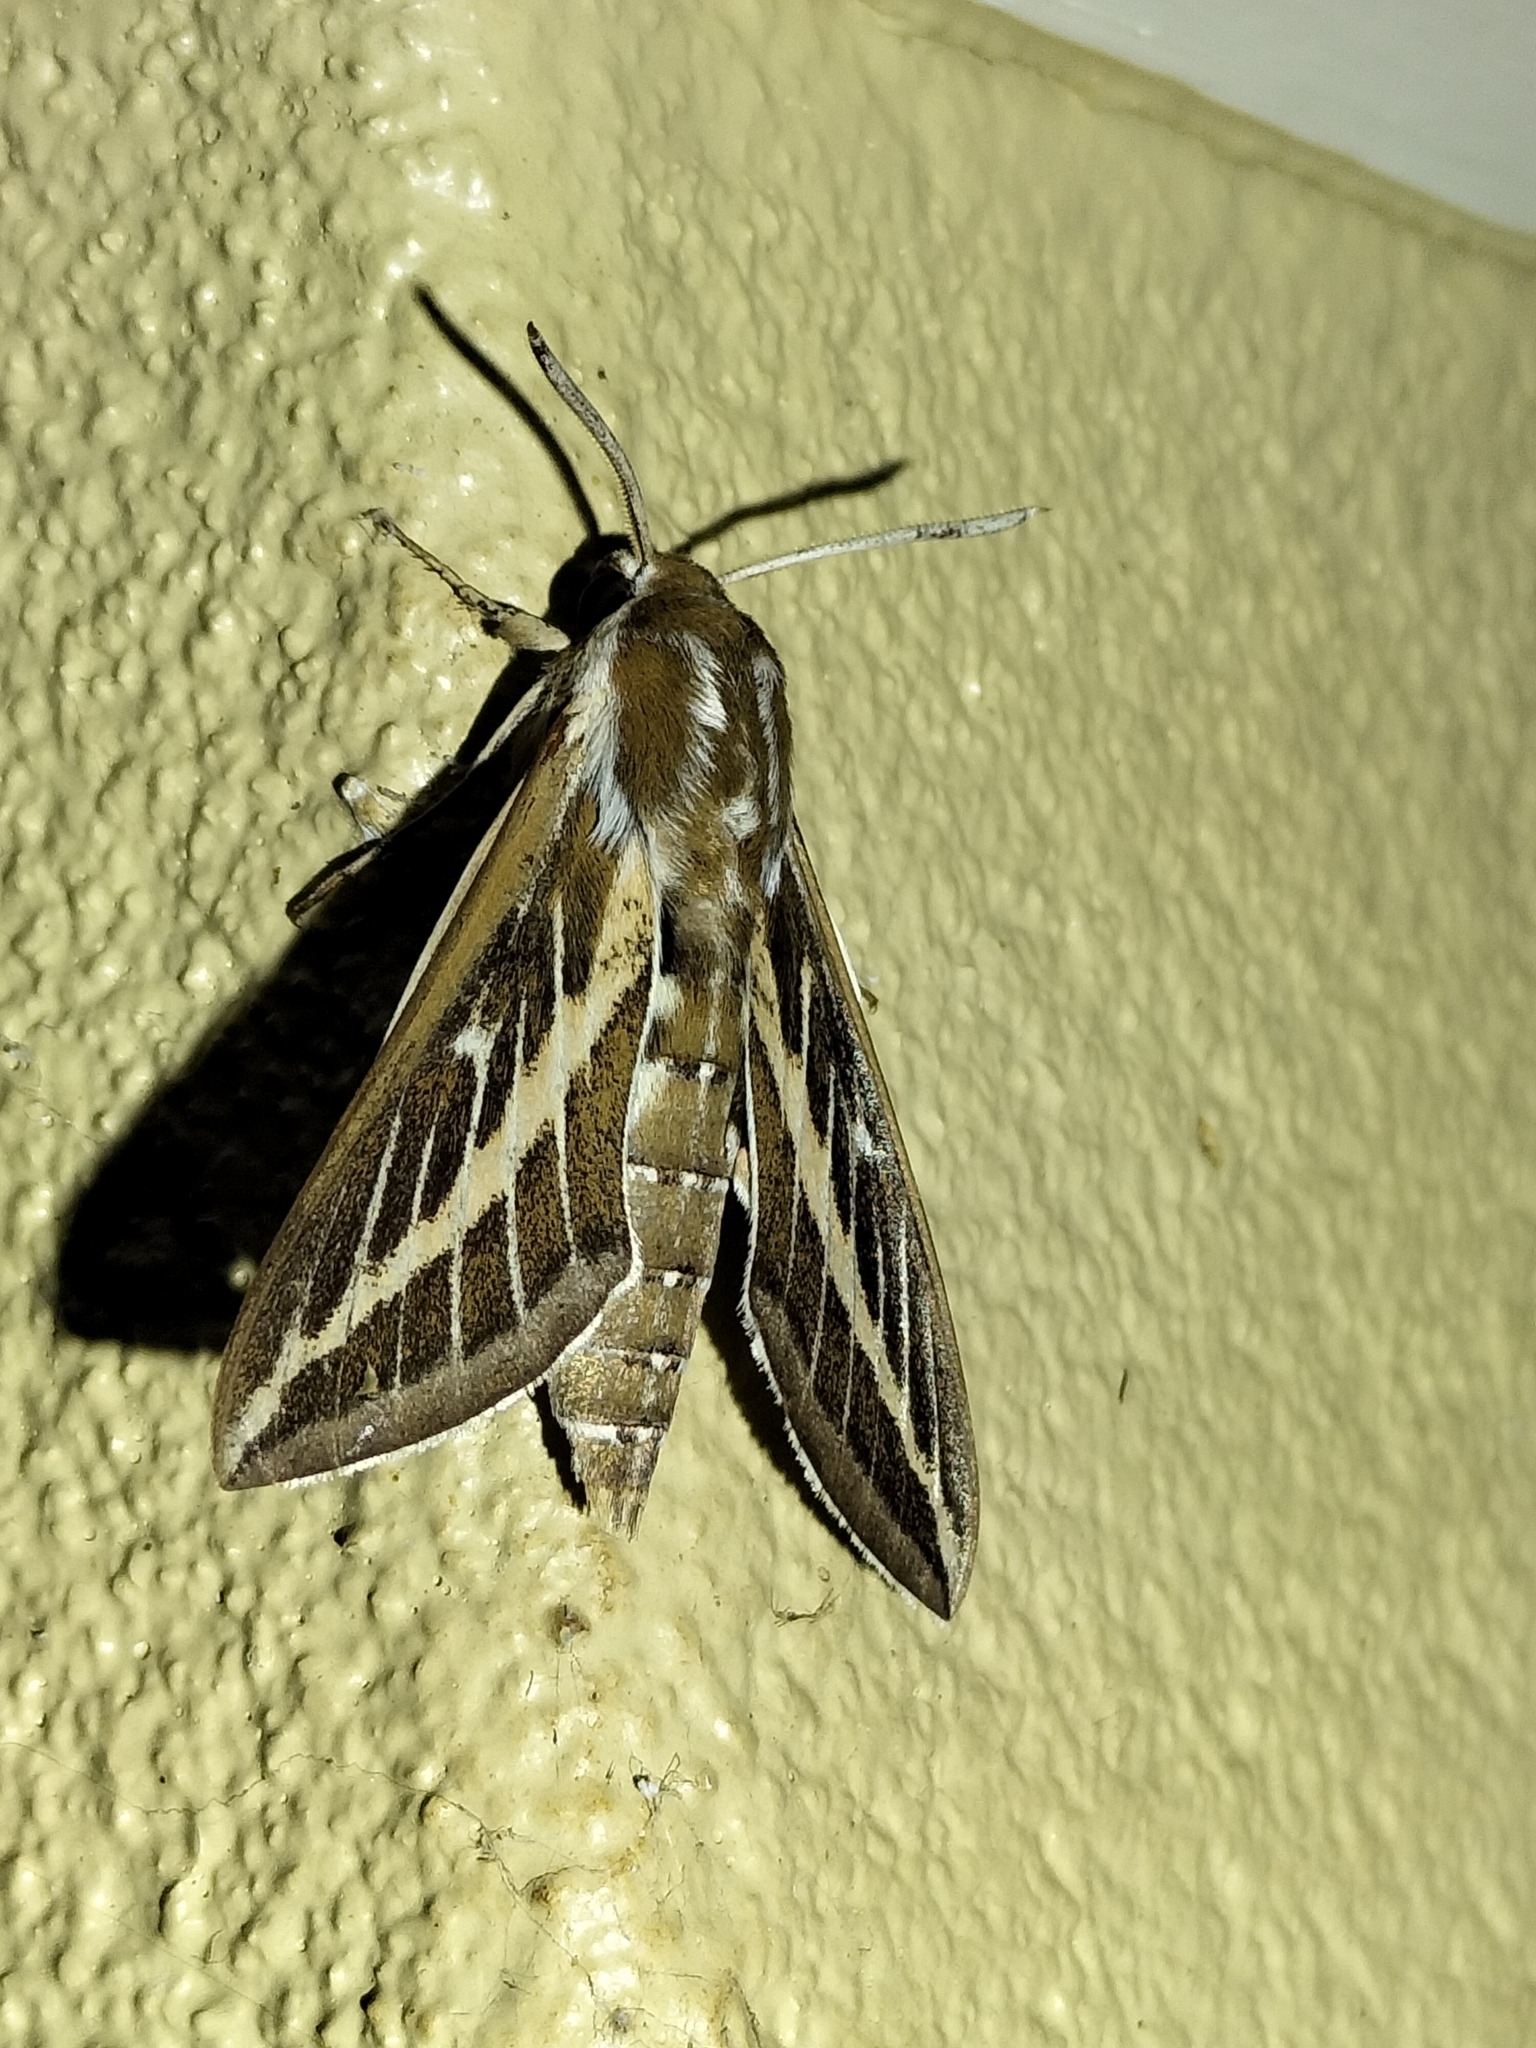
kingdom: Animalia
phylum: Arthropoda
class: Insecta
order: Lepidoptera
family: Sphingidae
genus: Hyles
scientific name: Hyles livornicoides
